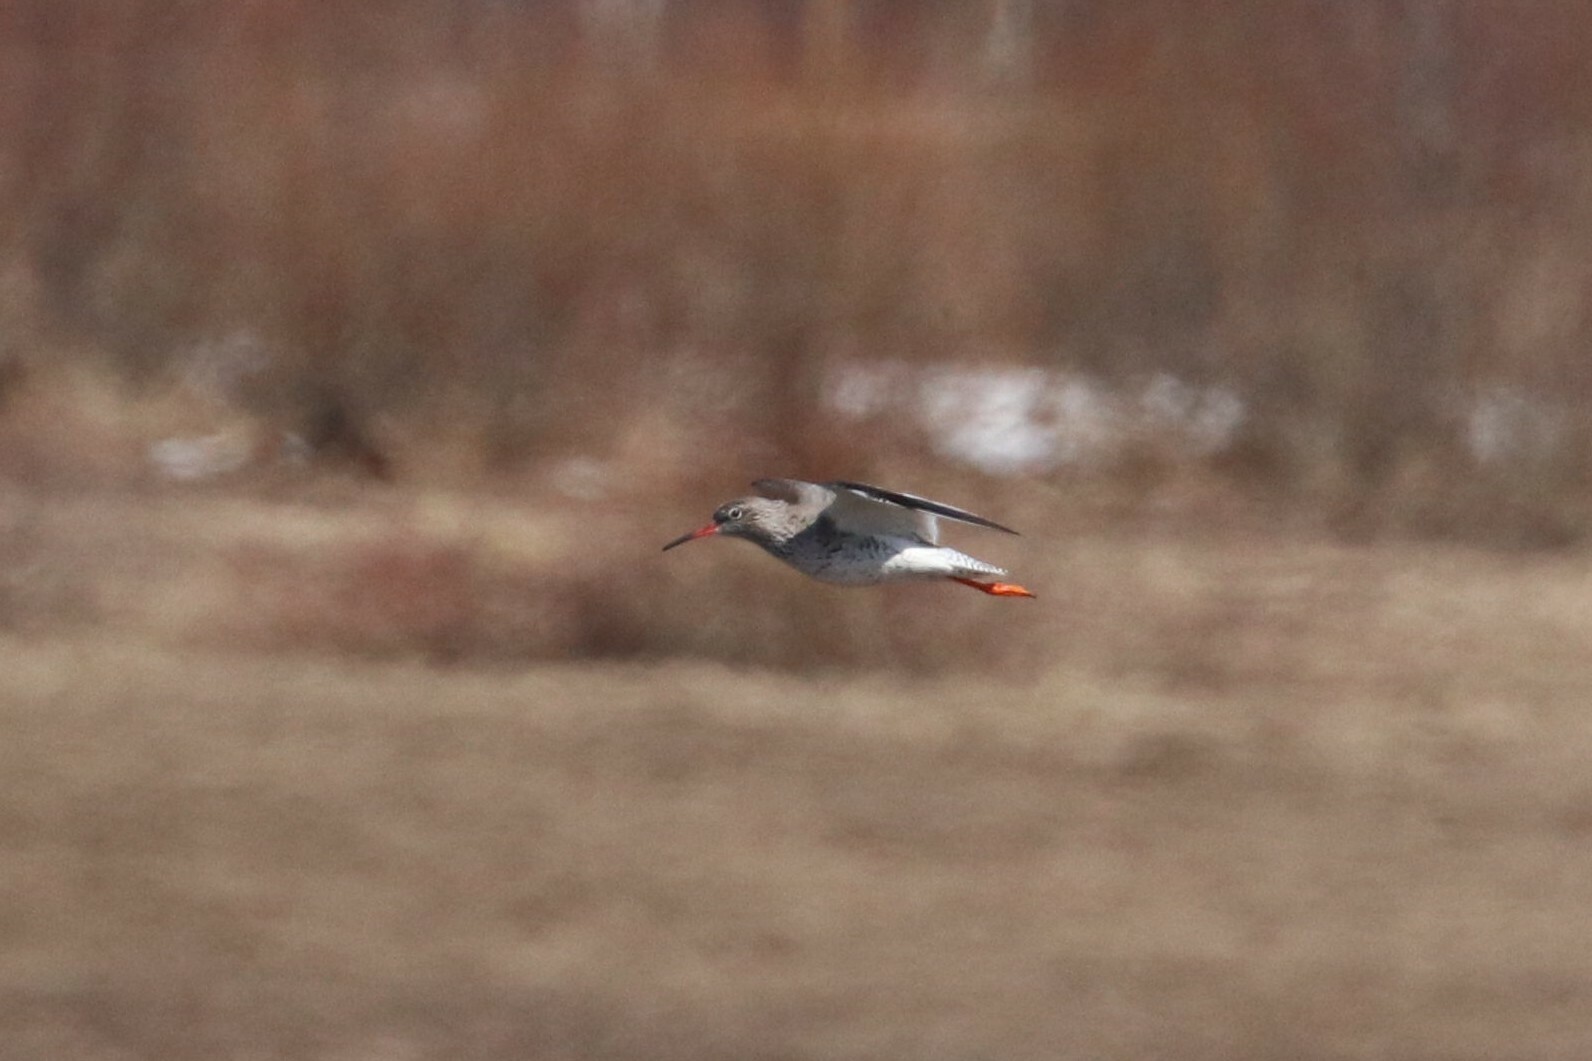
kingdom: Animalia
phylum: Chordata
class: Aves
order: Charadriiformes
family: Scolopacidae
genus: Tringa
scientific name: Tringa totanus
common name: Common redshank
